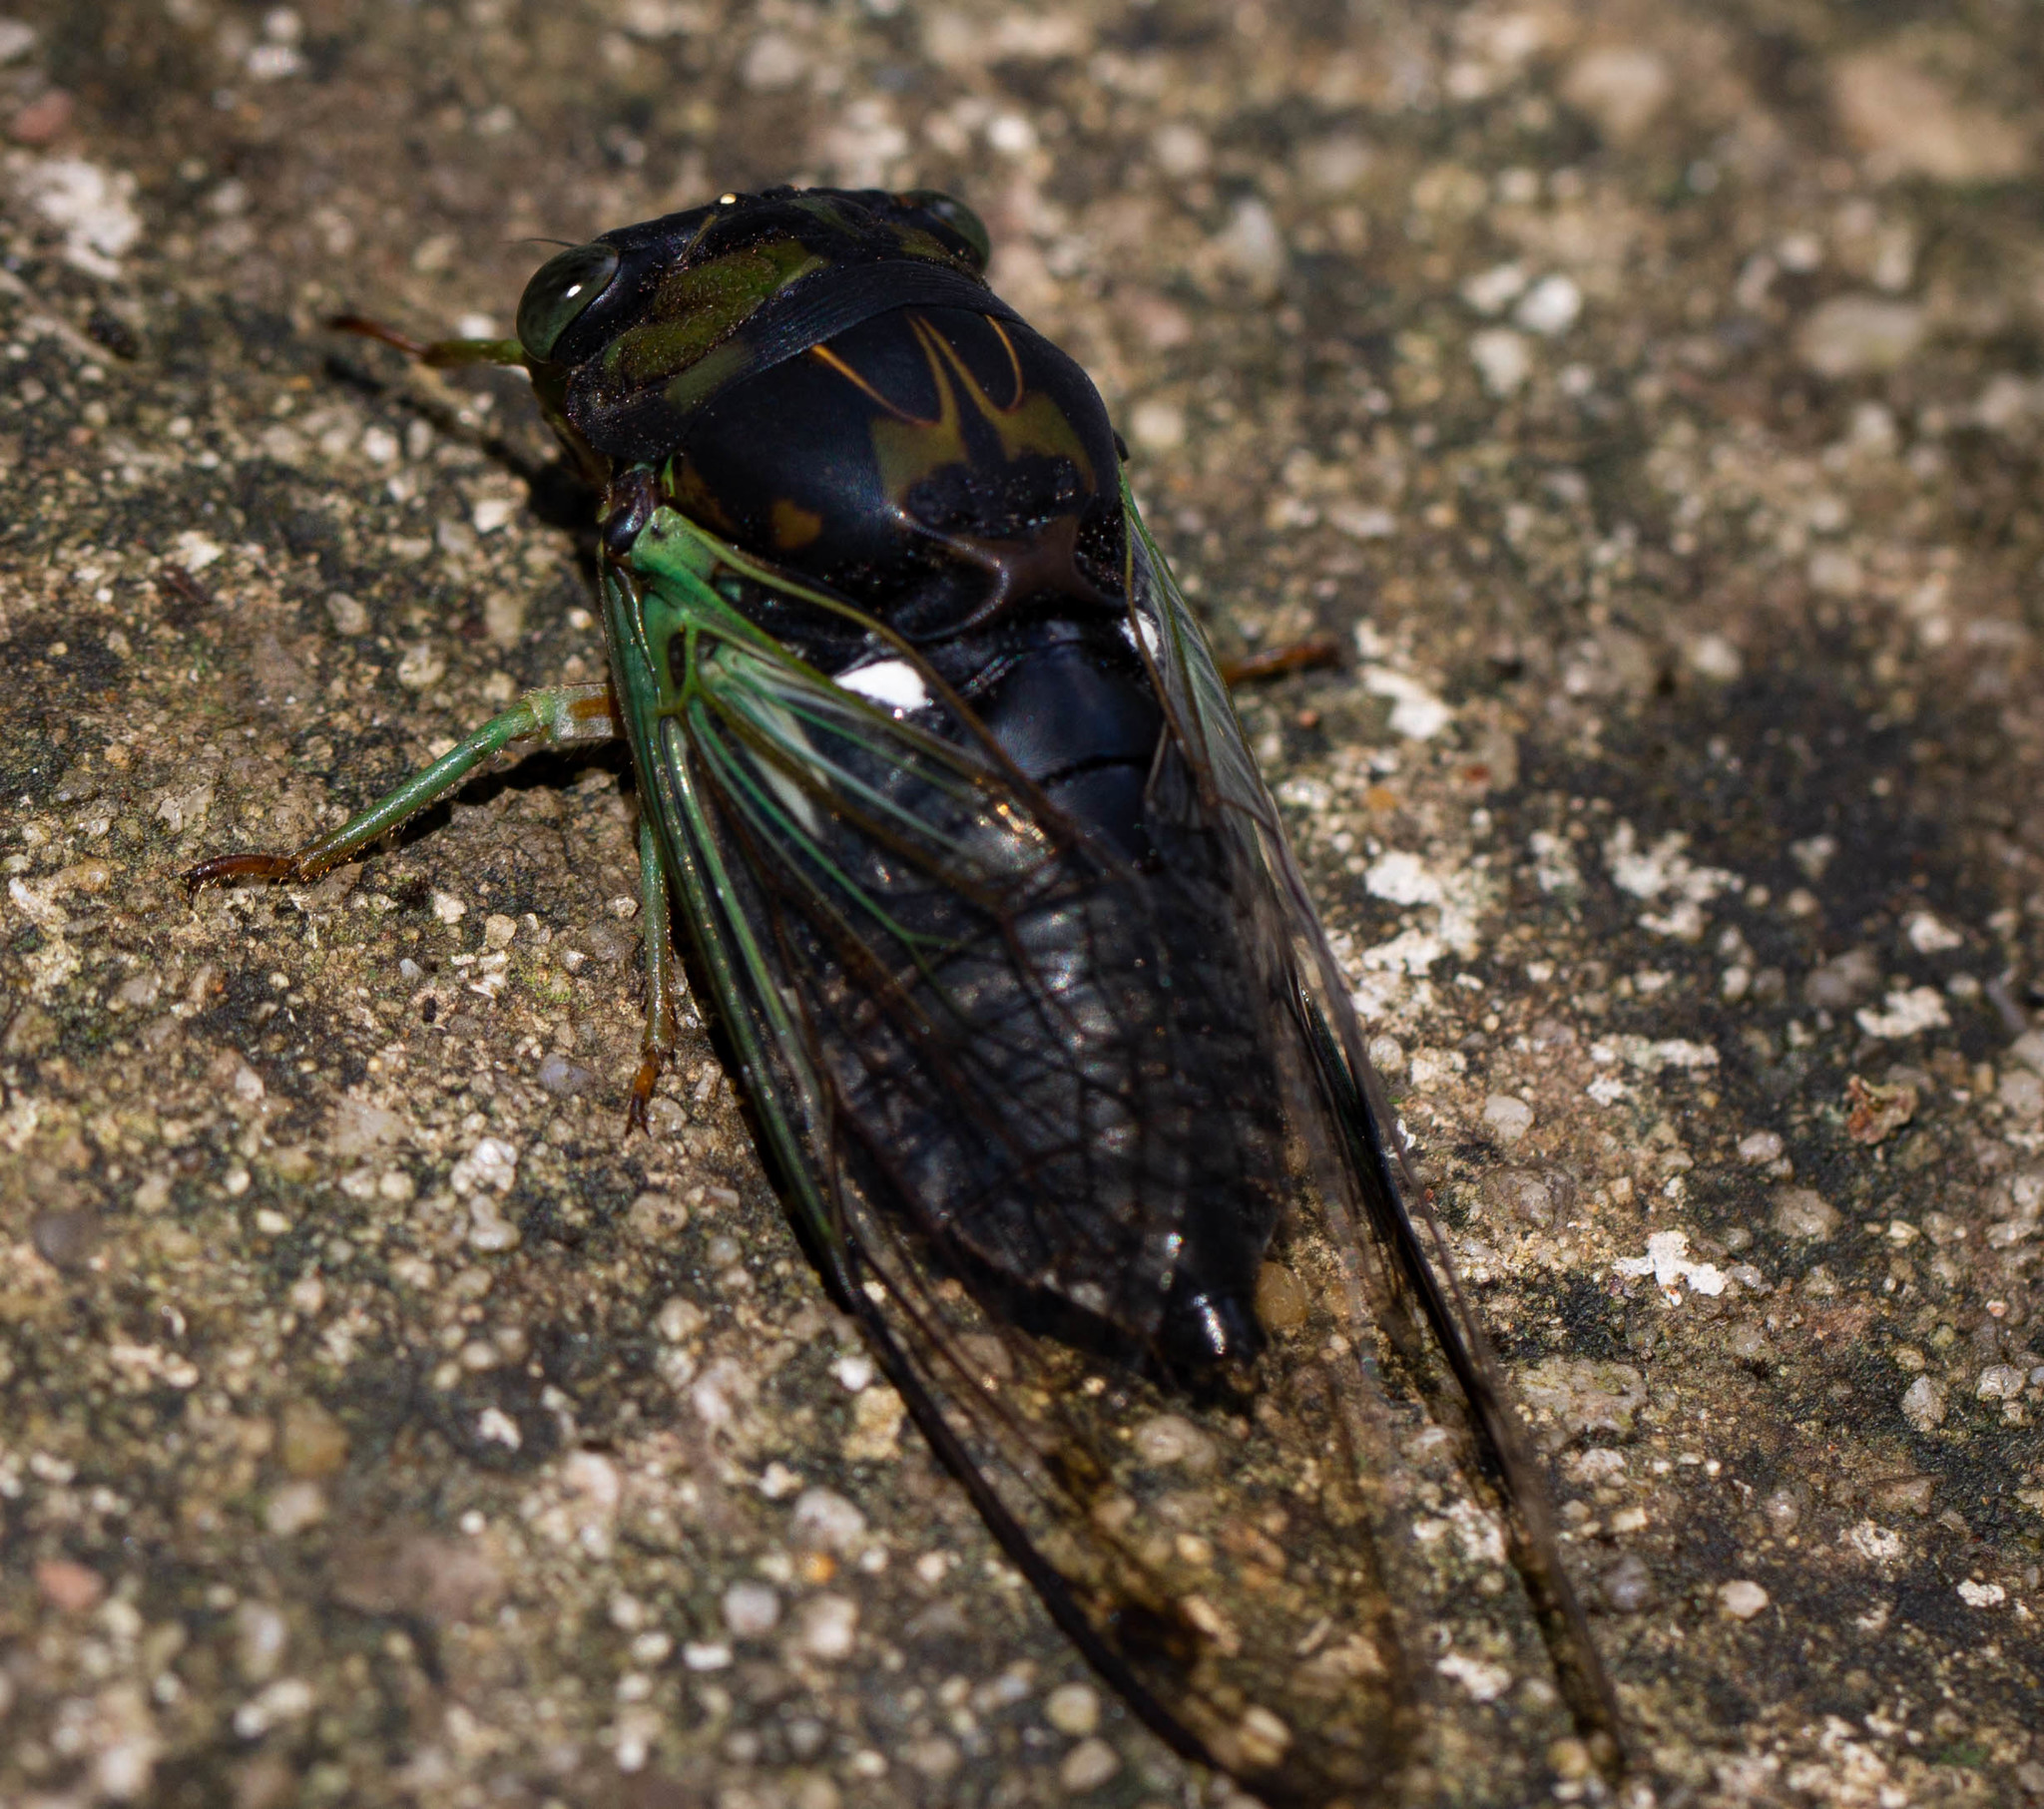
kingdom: Animalia
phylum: Arthropoda
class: Insecta
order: Hemiptera
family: Cicadidae
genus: Neotibicen
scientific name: Neotibicen tibicen
